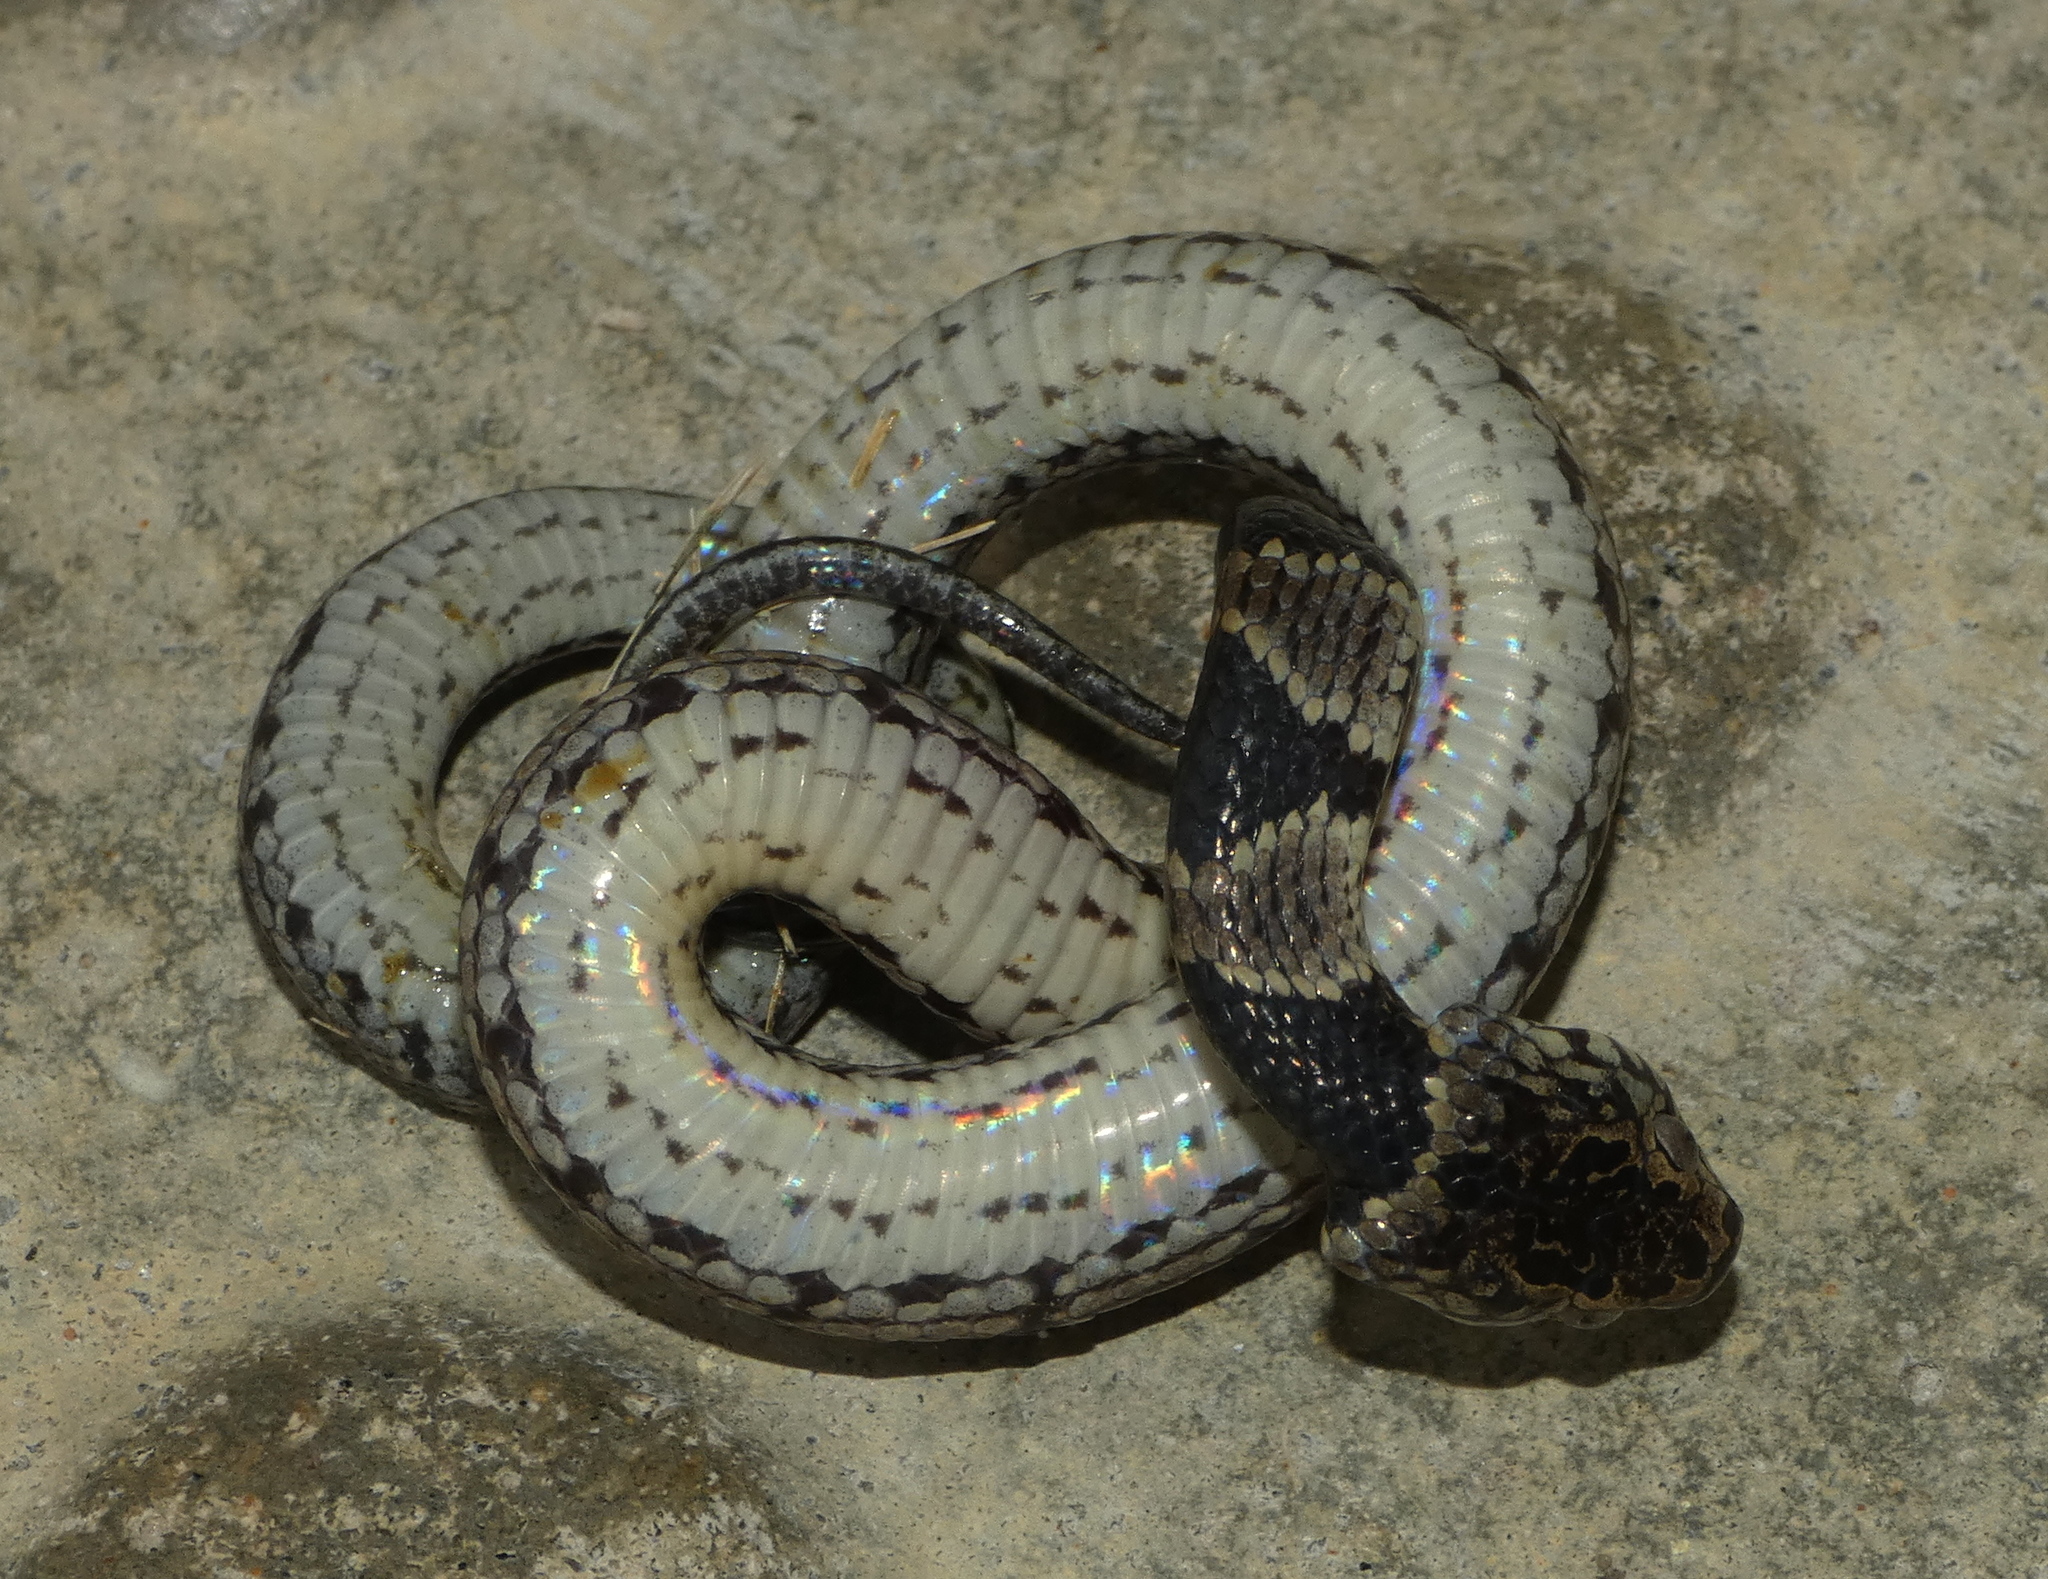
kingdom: Animalia
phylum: Chordata
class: Squamata
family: Colubridae
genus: Dipsas
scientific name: Dipsas neuwiedi
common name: Neuwied's tree snake
